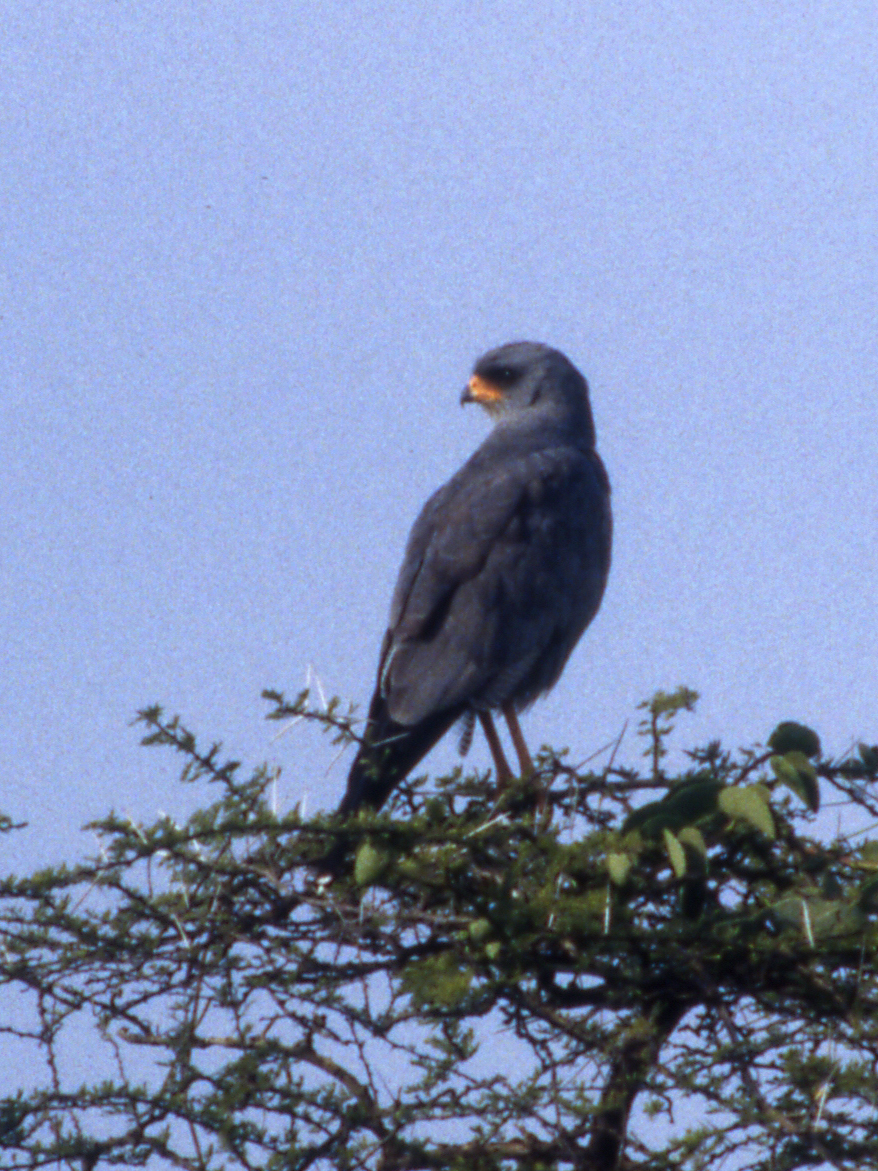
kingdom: Animalia
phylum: Chordata
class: Aves
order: Accipitriformes
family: Accipitridae
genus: Melierax
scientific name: Melierax poliopterus
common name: Eastern chanting goshawk
